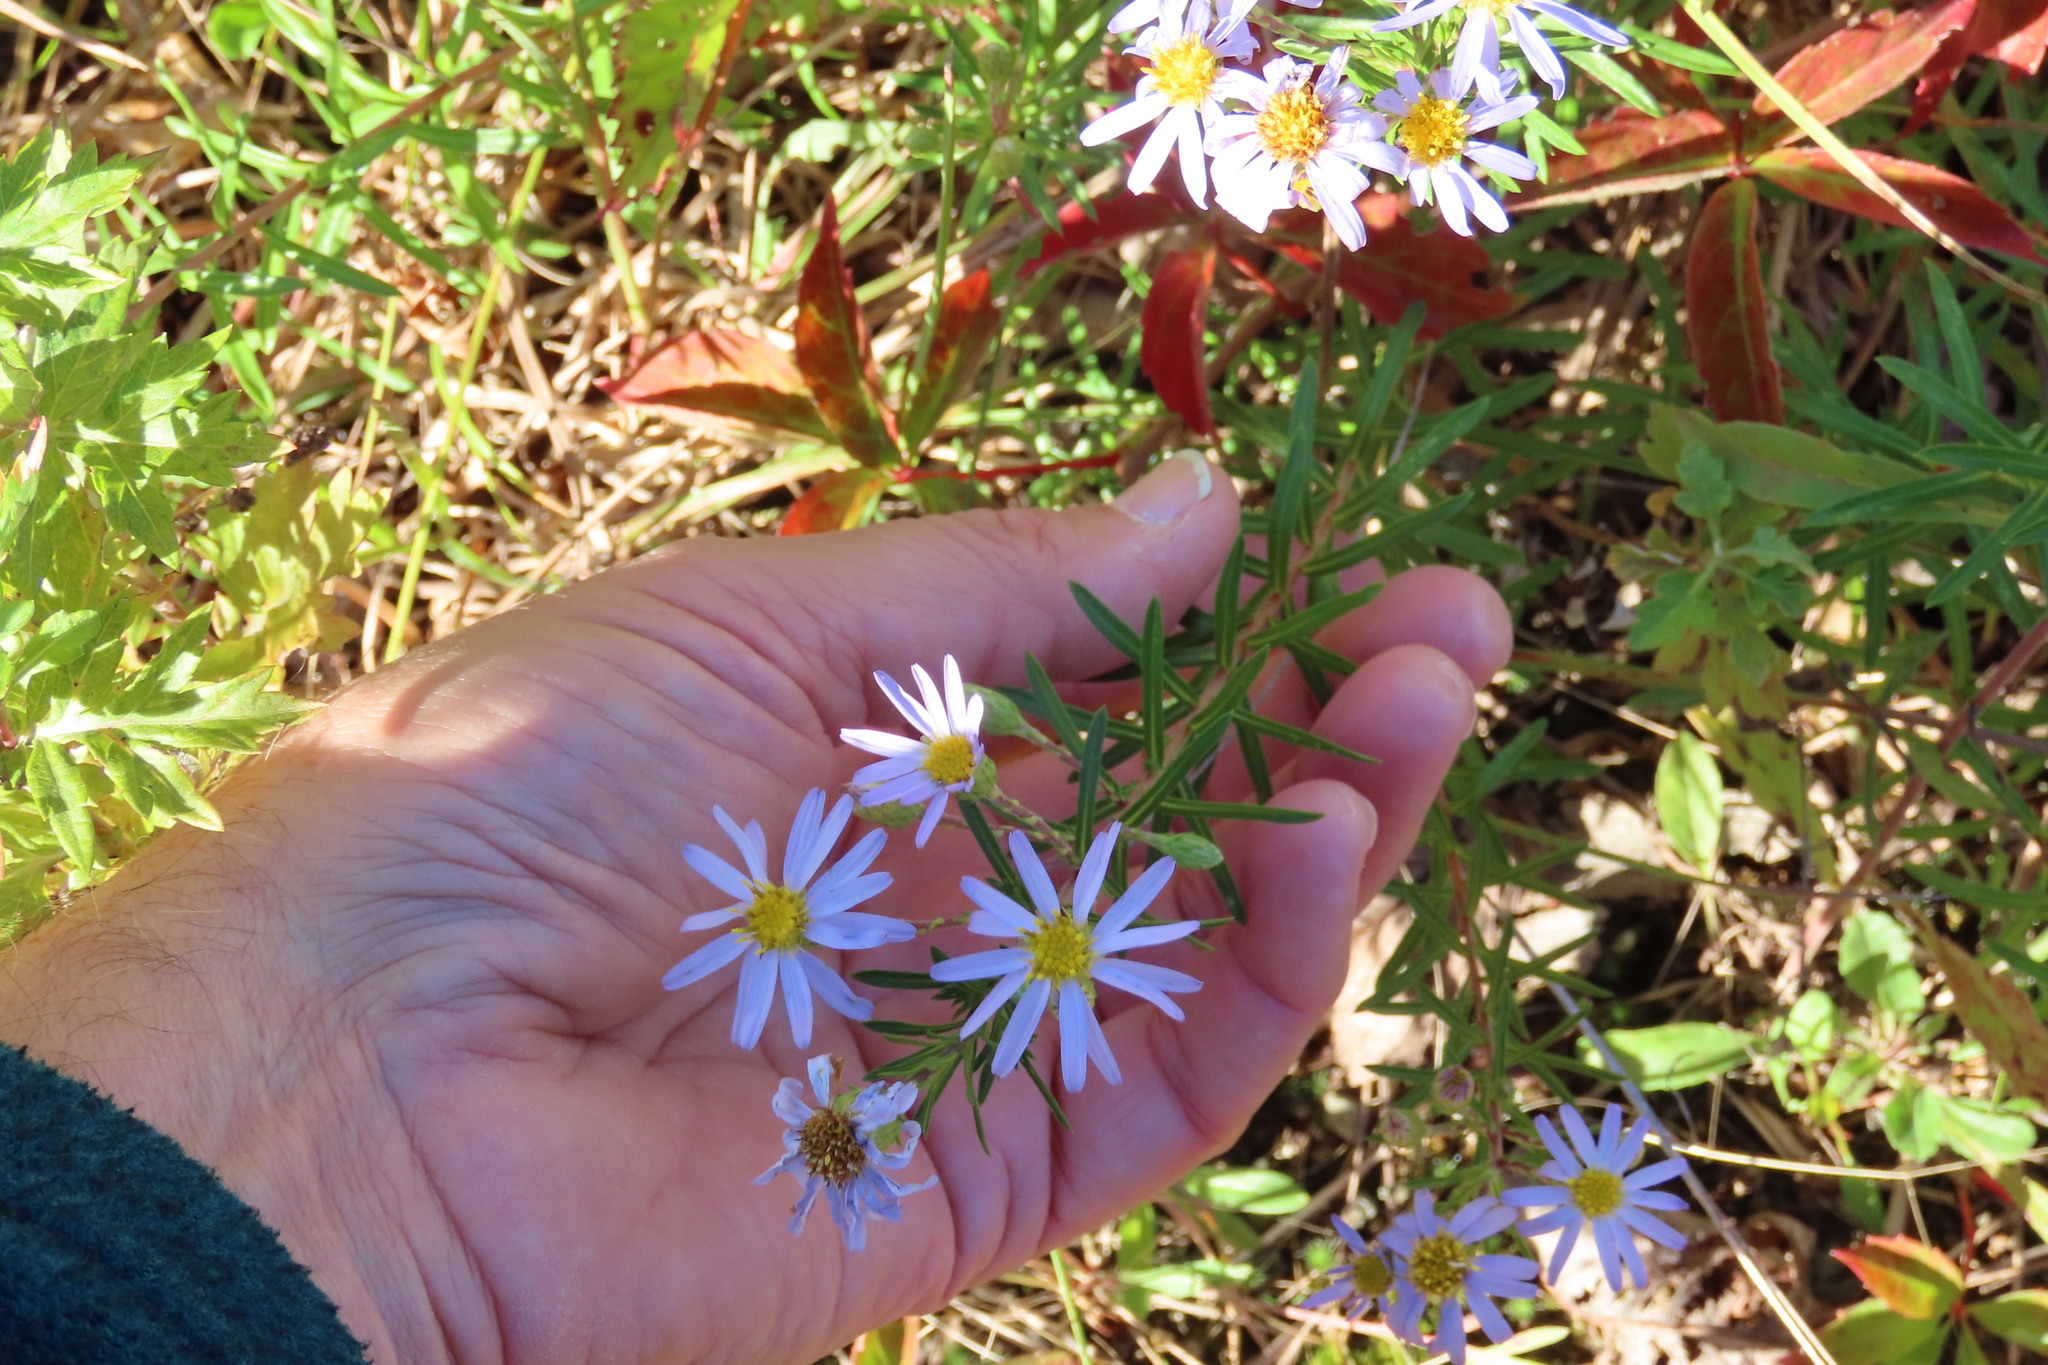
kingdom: Plantae
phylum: Tracheophyta
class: Magnoliopsida
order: Asterales
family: Asteraceae
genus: Ionactis
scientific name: Ionactis linariifolia
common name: Flax-leaf aster
